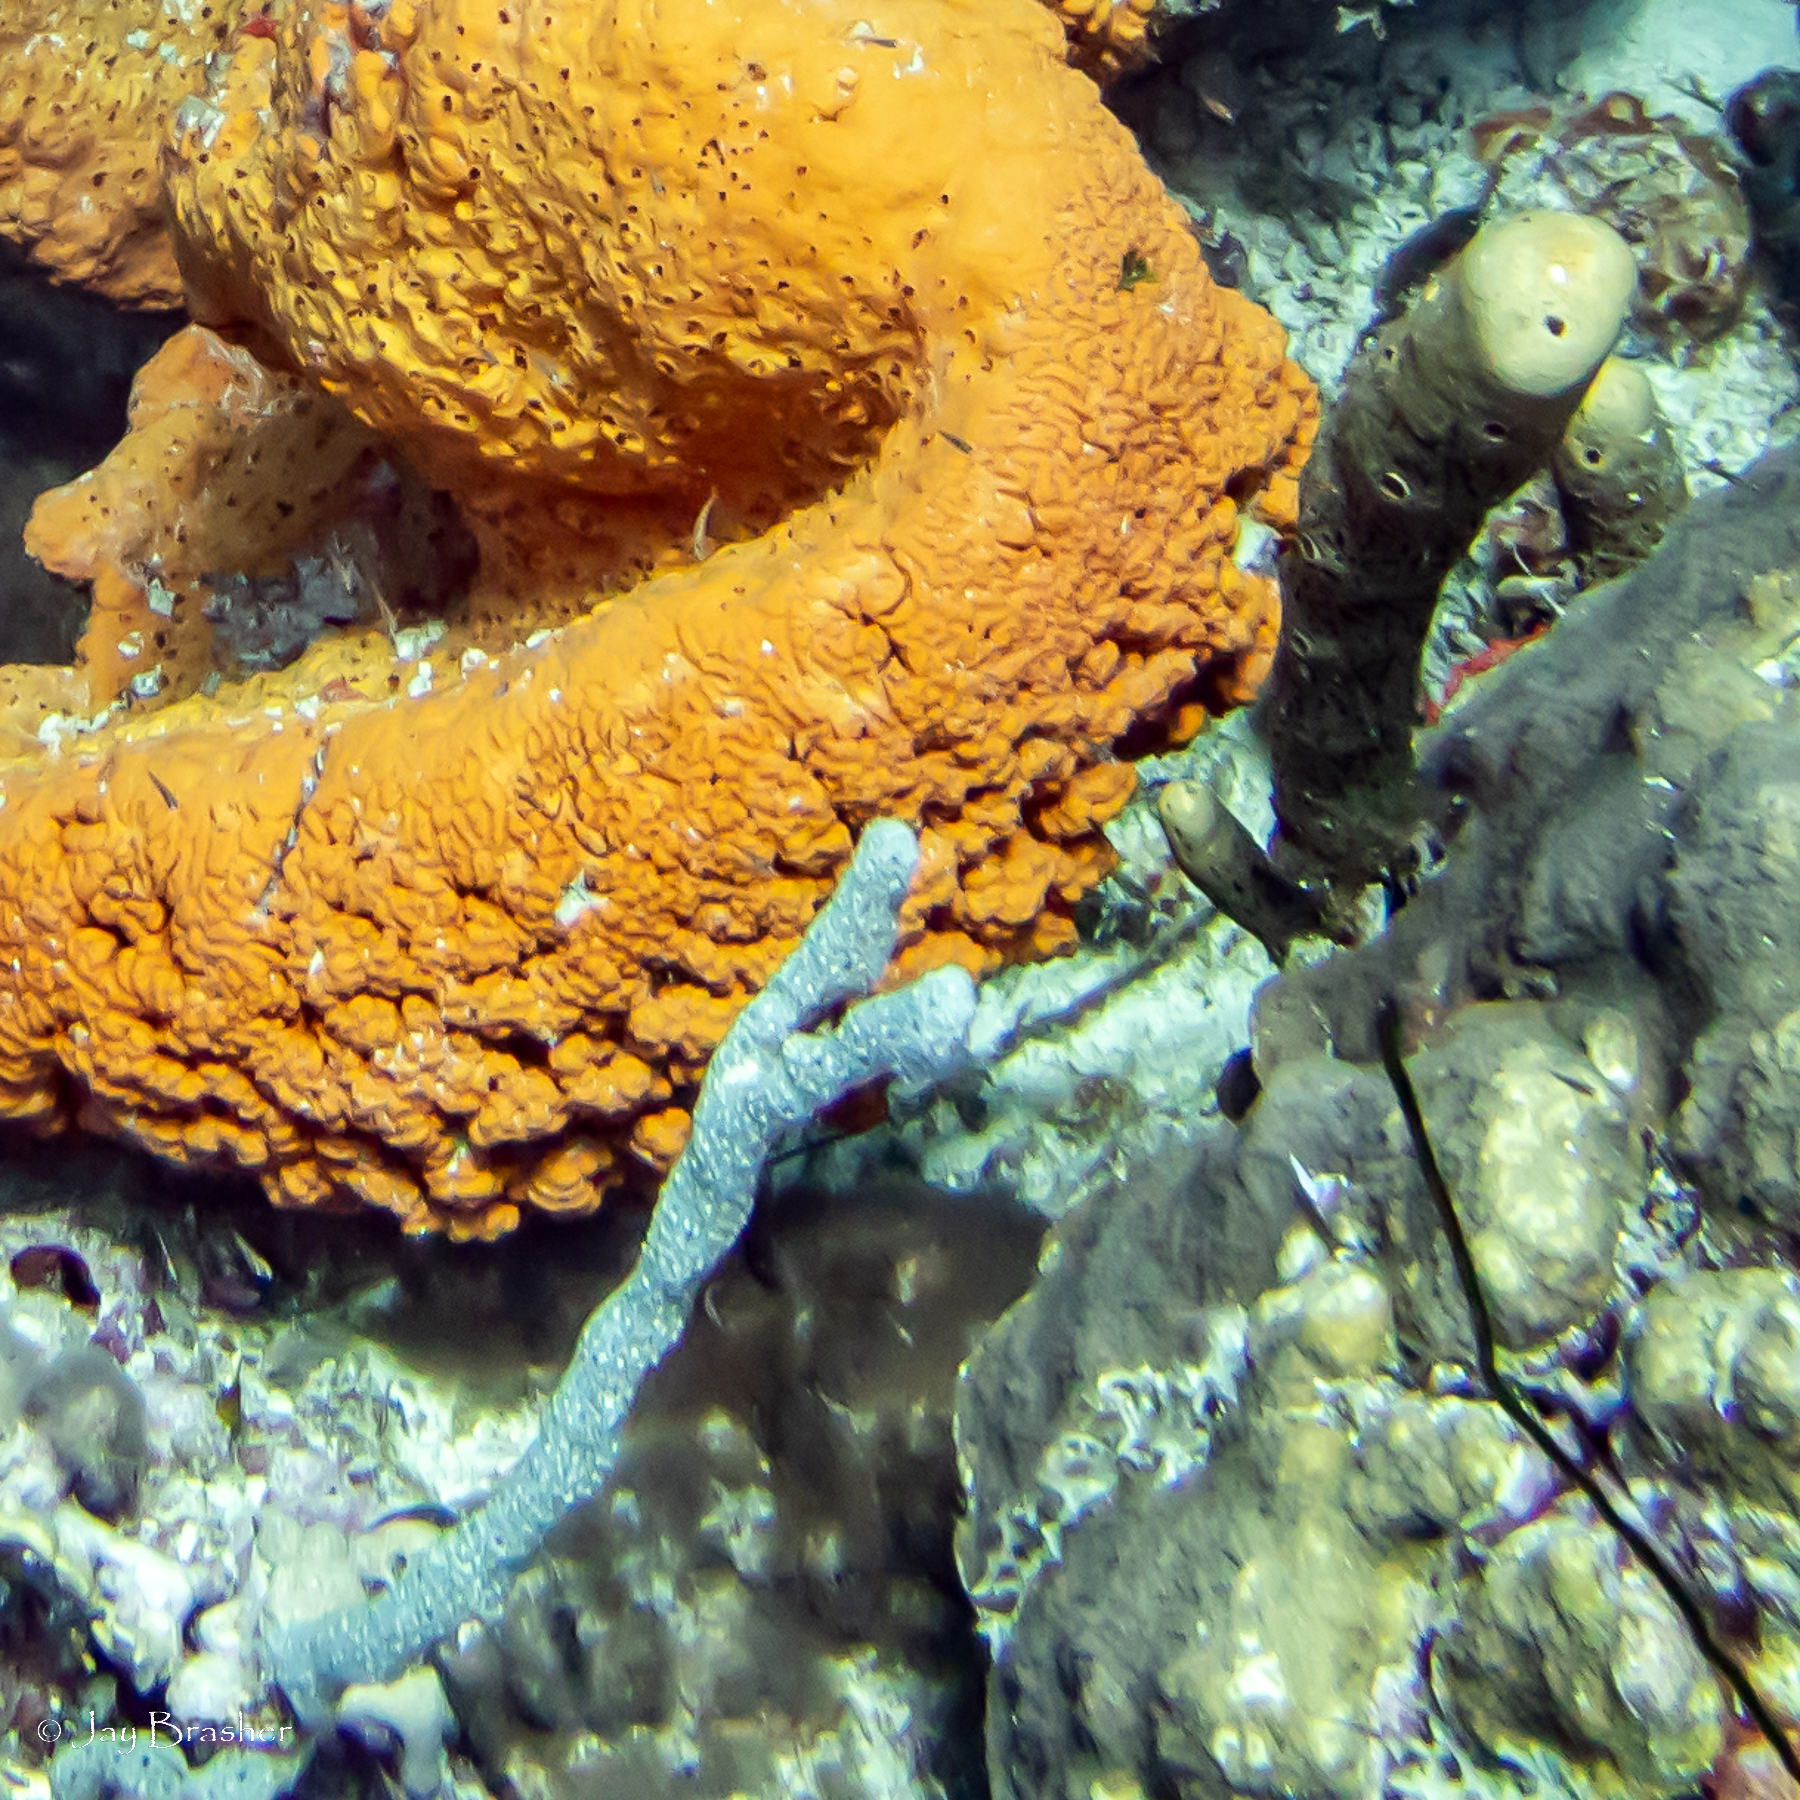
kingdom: Animalia
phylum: Porifera
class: Demospongiae
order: Haplosclerida
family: Niphatidae
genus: Niphates
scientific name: Niphates erecta
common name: Lavender rope sponge
